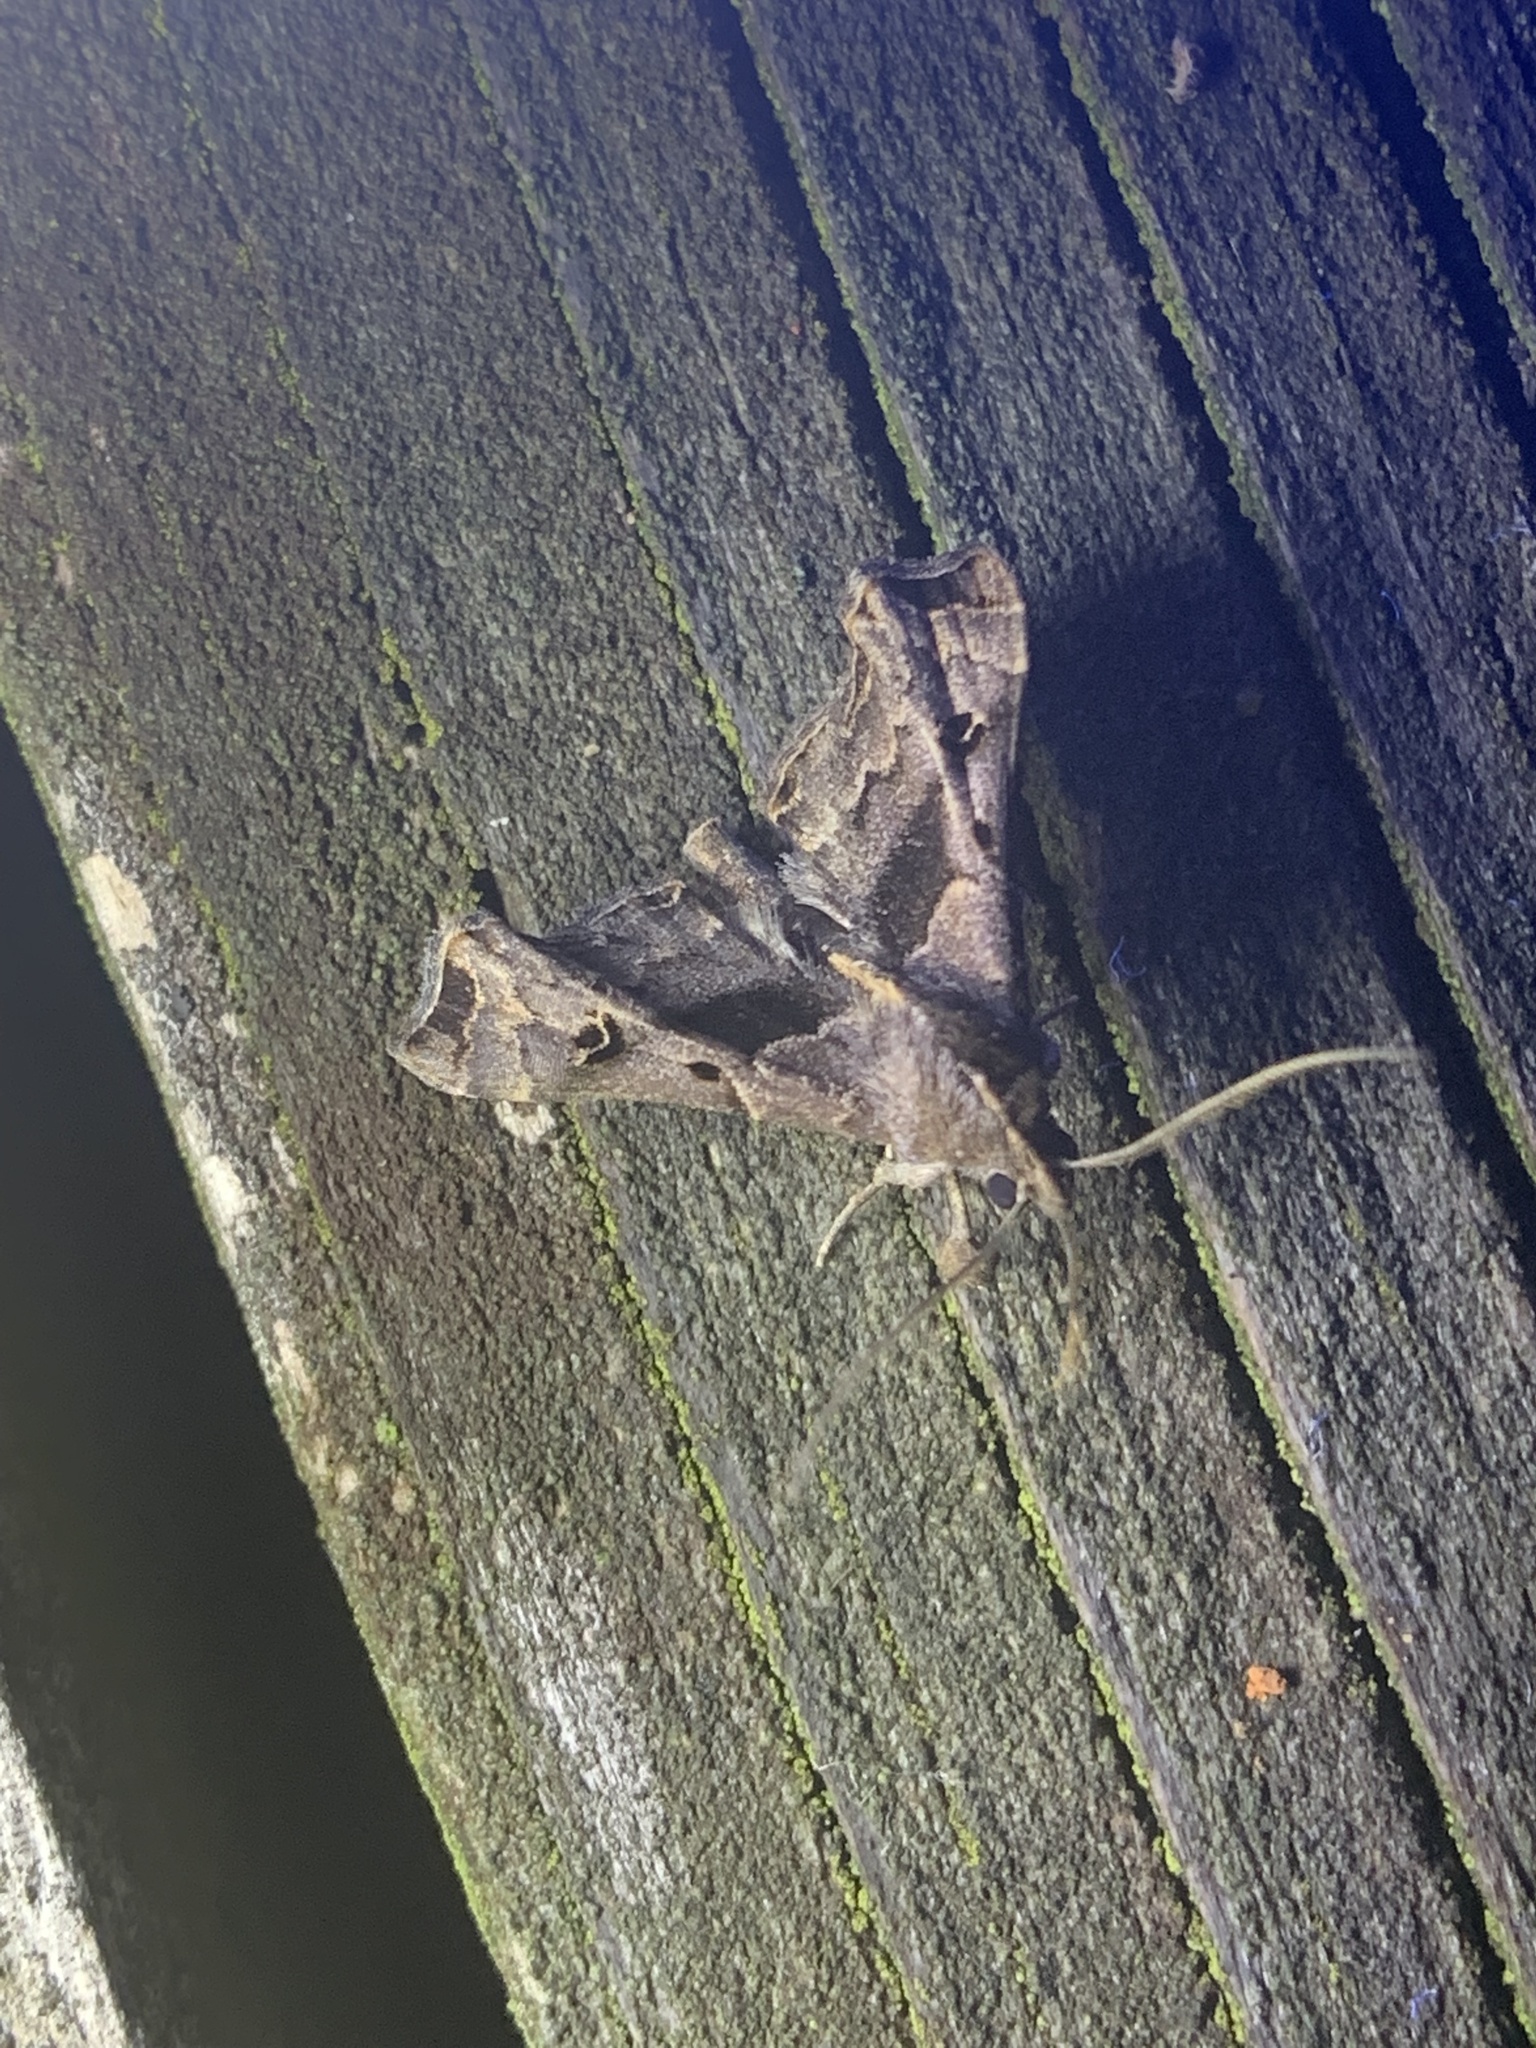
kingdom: Animalia
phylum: Arthropoda
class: Insecta
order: Lepidoptera
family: Erebidae
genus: Palthis
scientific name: Palthis asopialis
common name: Faint-spotted palthis moth
